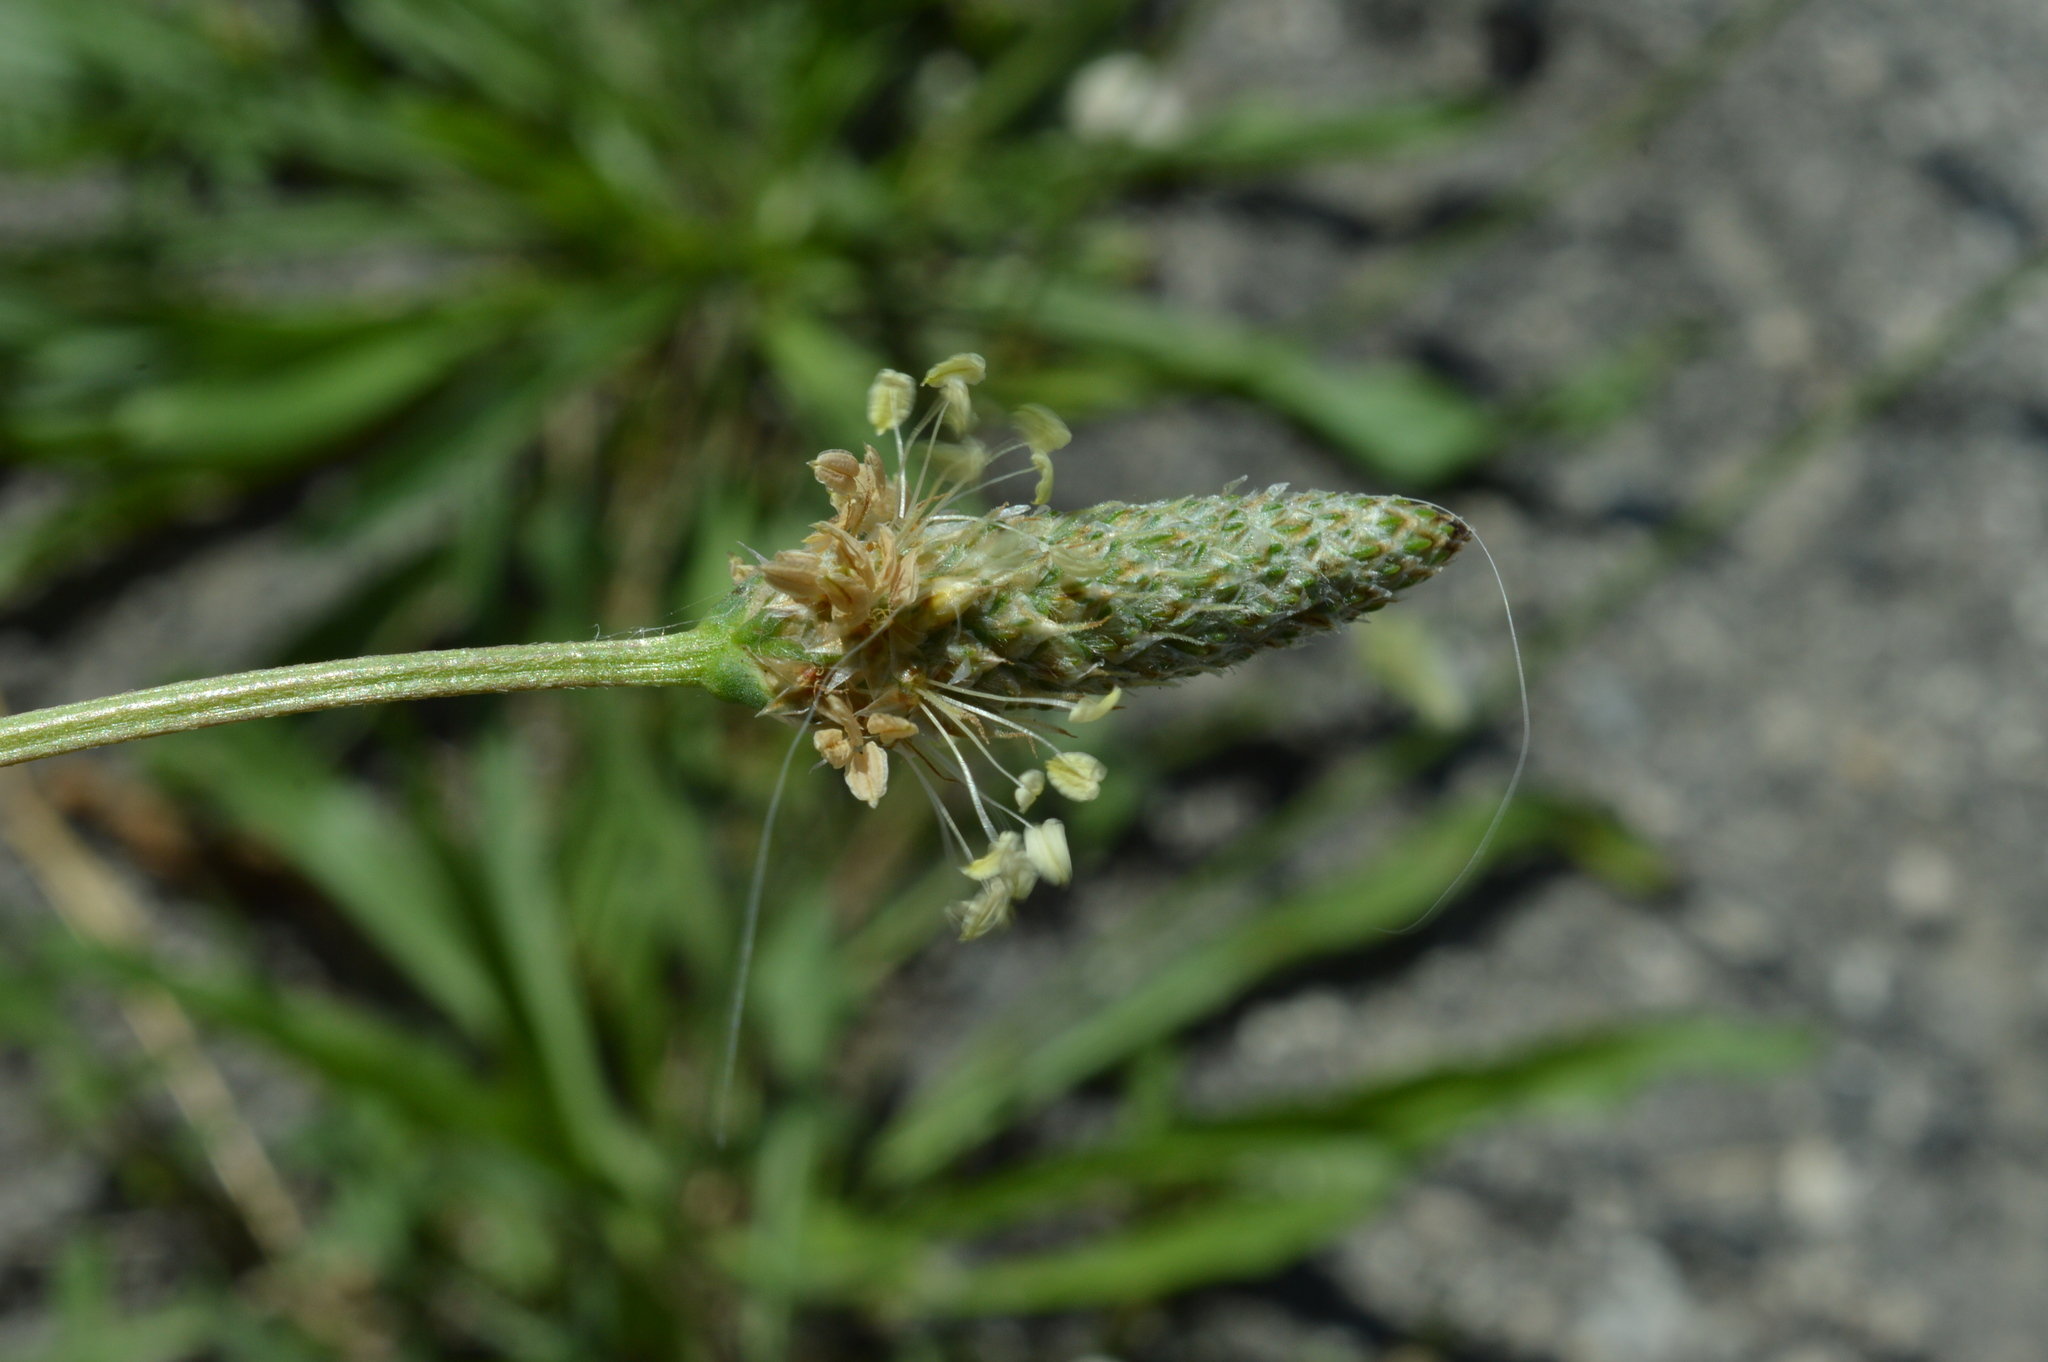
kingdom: Plantae
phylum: Tracheophyta
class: Magnoliopsida
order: Lamiales
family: Plantaginaceae
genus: Plantago
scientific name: Plantago lanceolata
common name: Ribwort plantain
